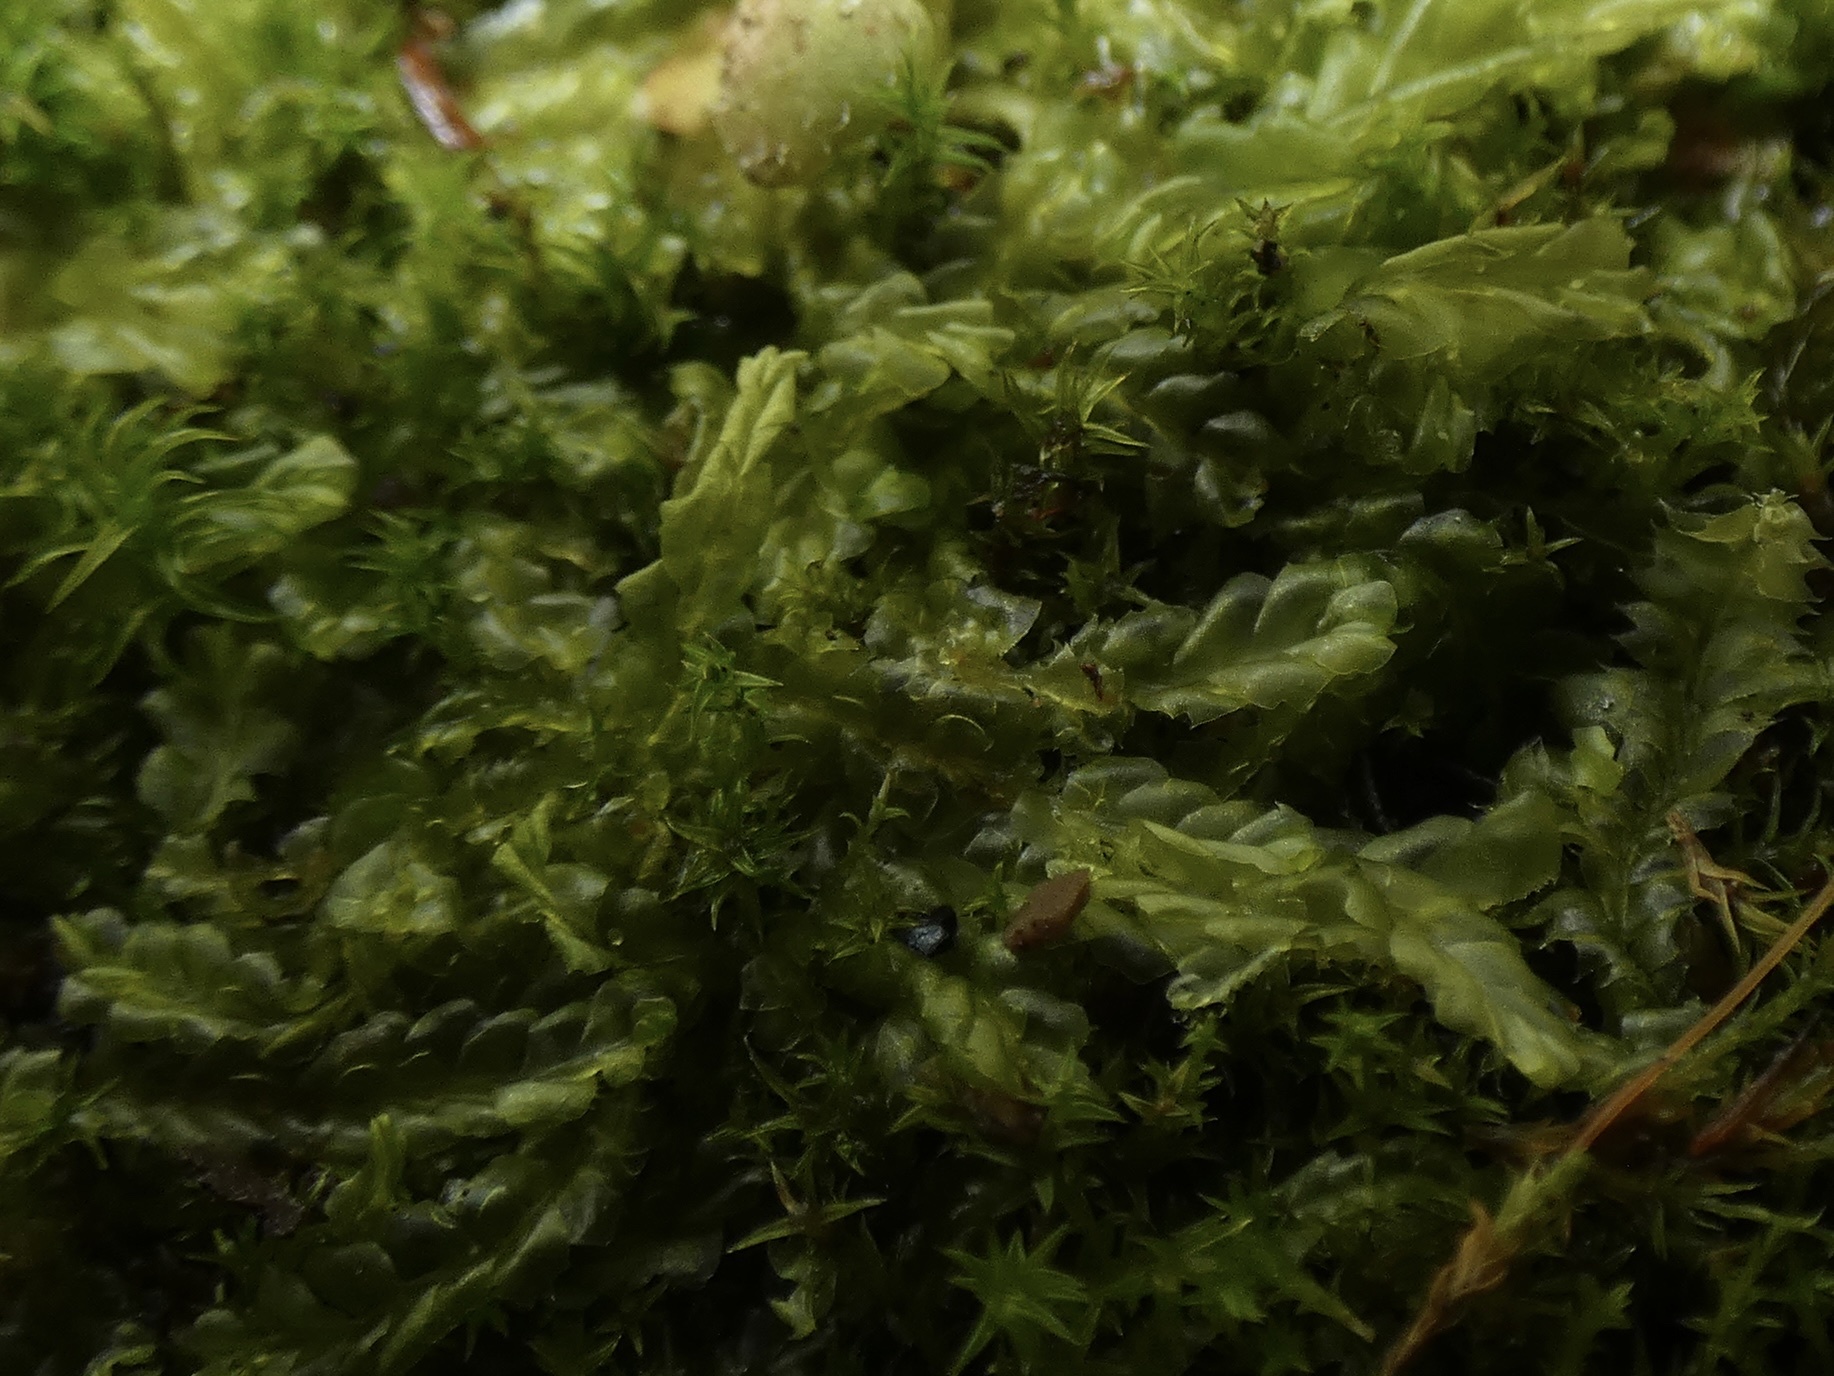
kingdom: Plantae
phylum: Marchantiophyta
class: Jungermanniopsida
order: Jungermanniales
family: Lophocoleaceae
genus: Lophocolea
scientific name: Lophocolea semiteres
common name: Southern crestwort
